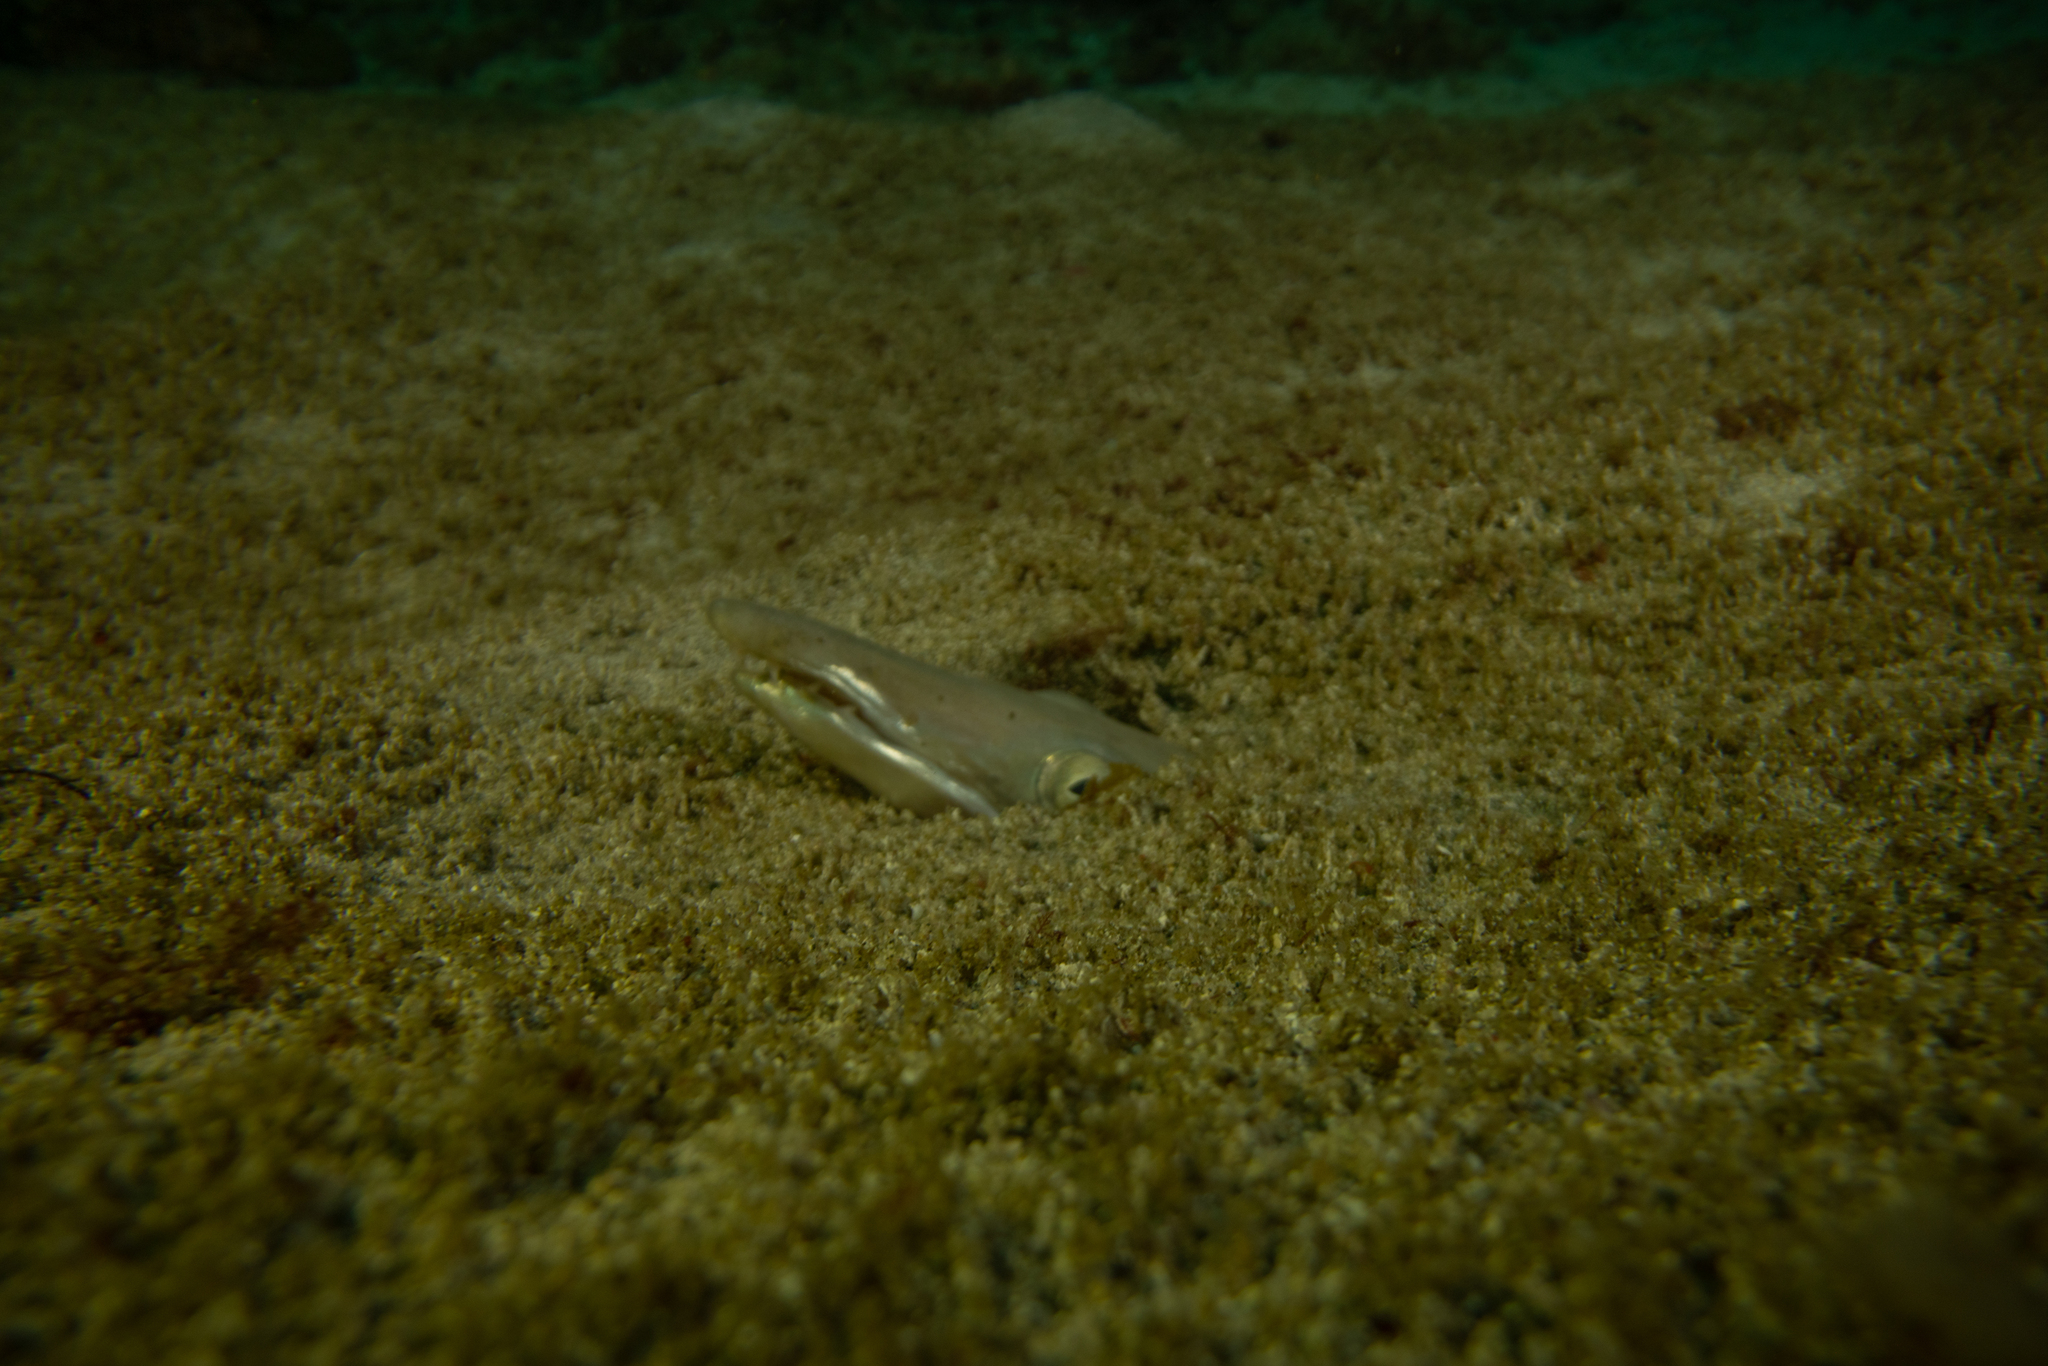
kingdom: Animalia
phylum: Chordata
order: Anguilliformes
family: Ophichthidae
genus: Ophisurus
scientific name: Ophisurus serpens
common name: Serpent eel
